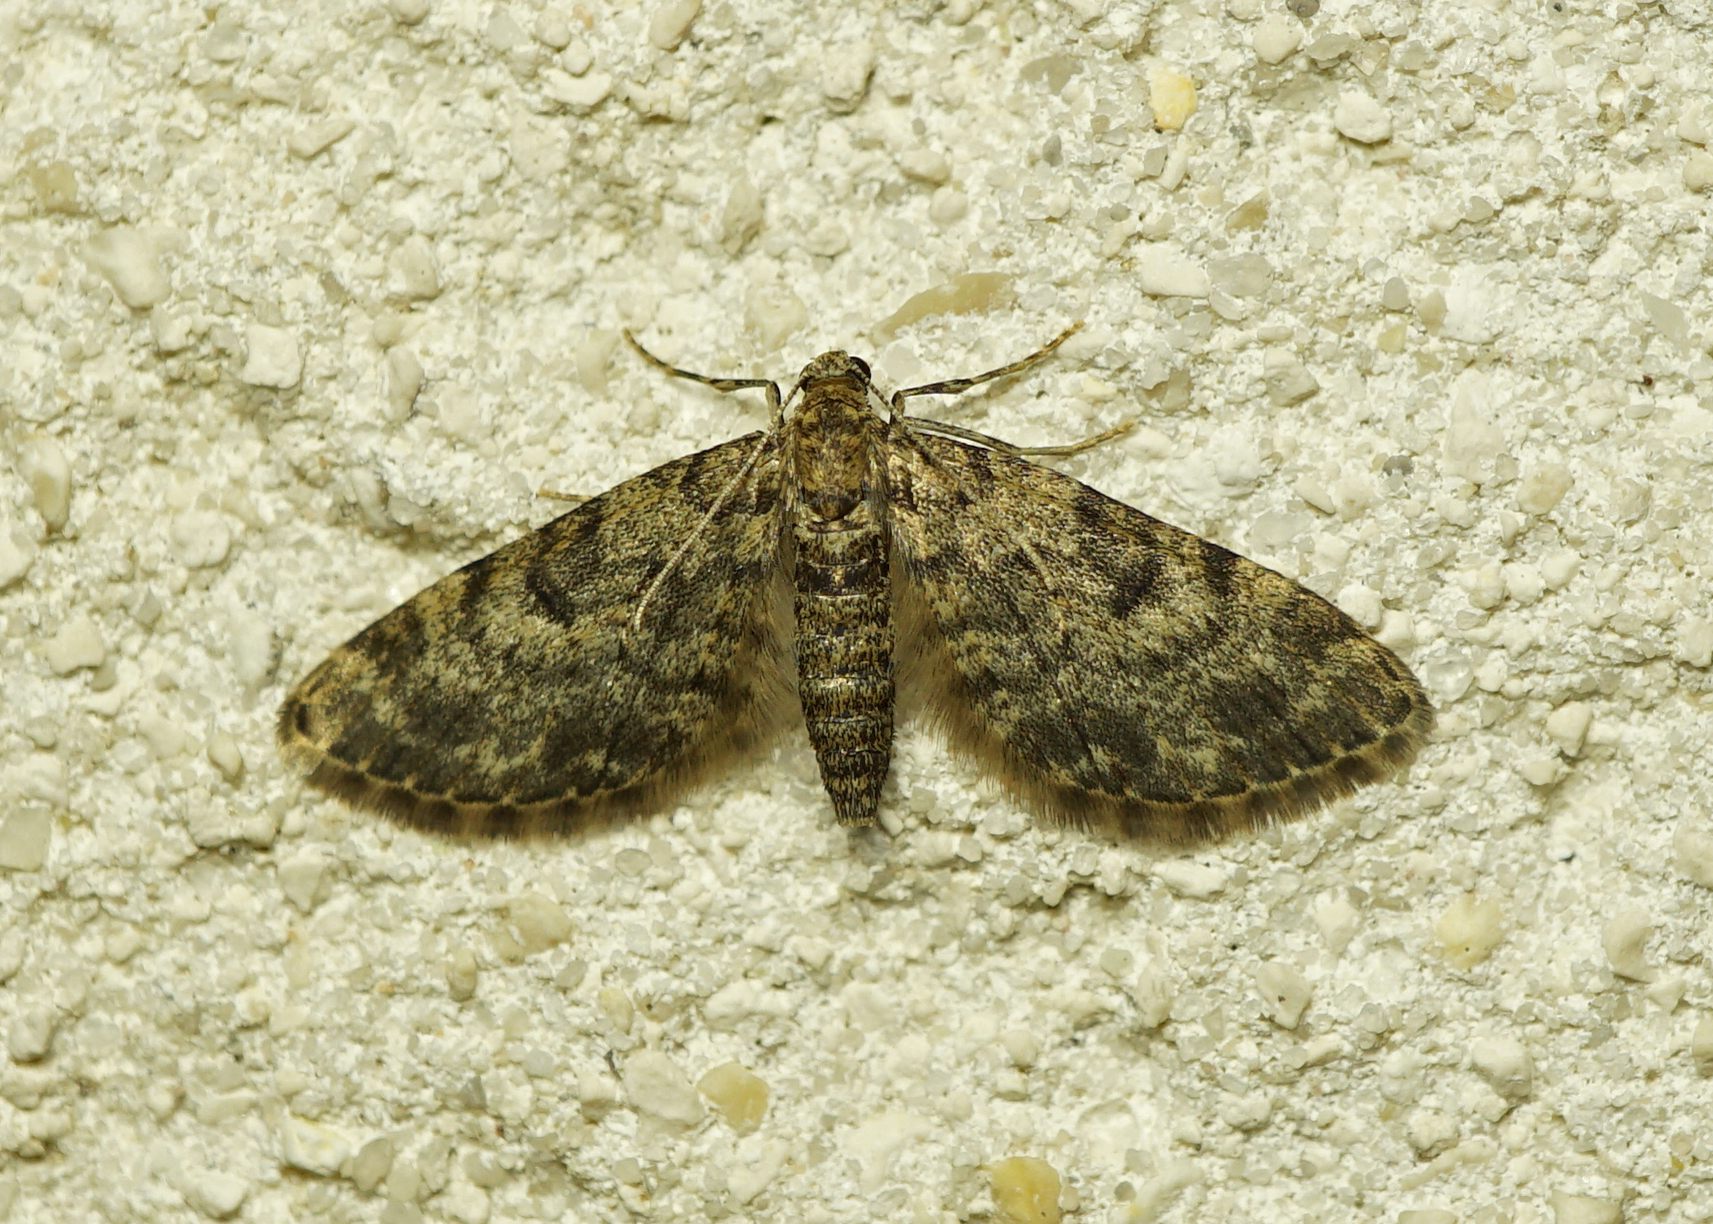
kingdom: Animalia
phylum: Arthropoda
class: Insecta
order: Lepidoptera
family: Geometridae
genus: Eupithecia
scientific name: Eupithecia tantillaria
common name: Dwarf pug
